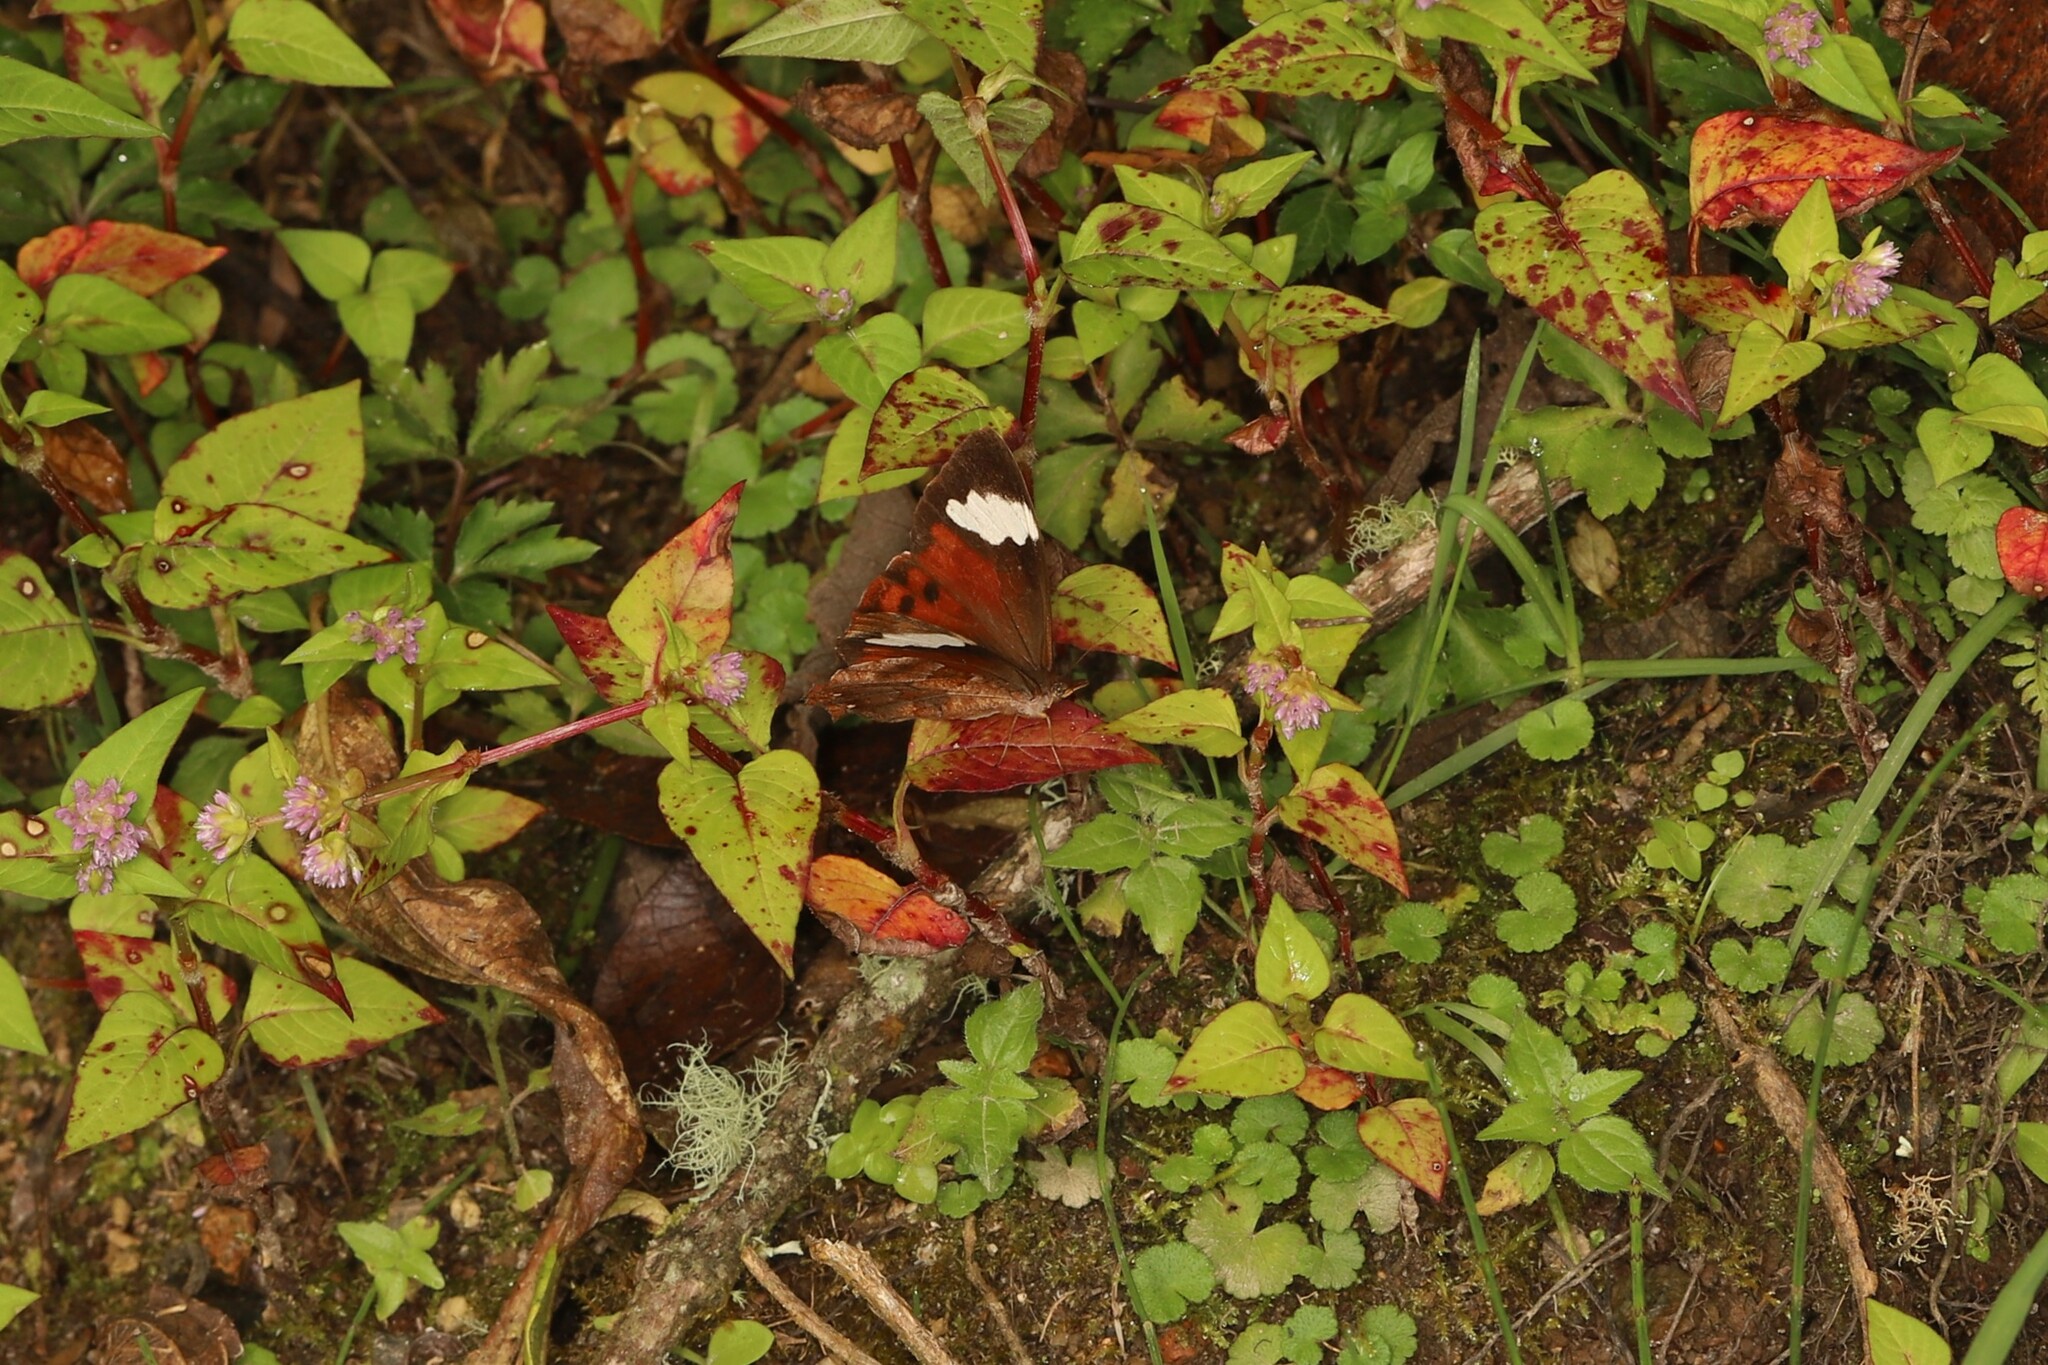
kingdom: Animalia
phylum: Arthropoda
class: Insecta
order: Lepidoptera
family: Nymphalidae
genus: Lasiophila
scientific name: Lasiophila prosymna
